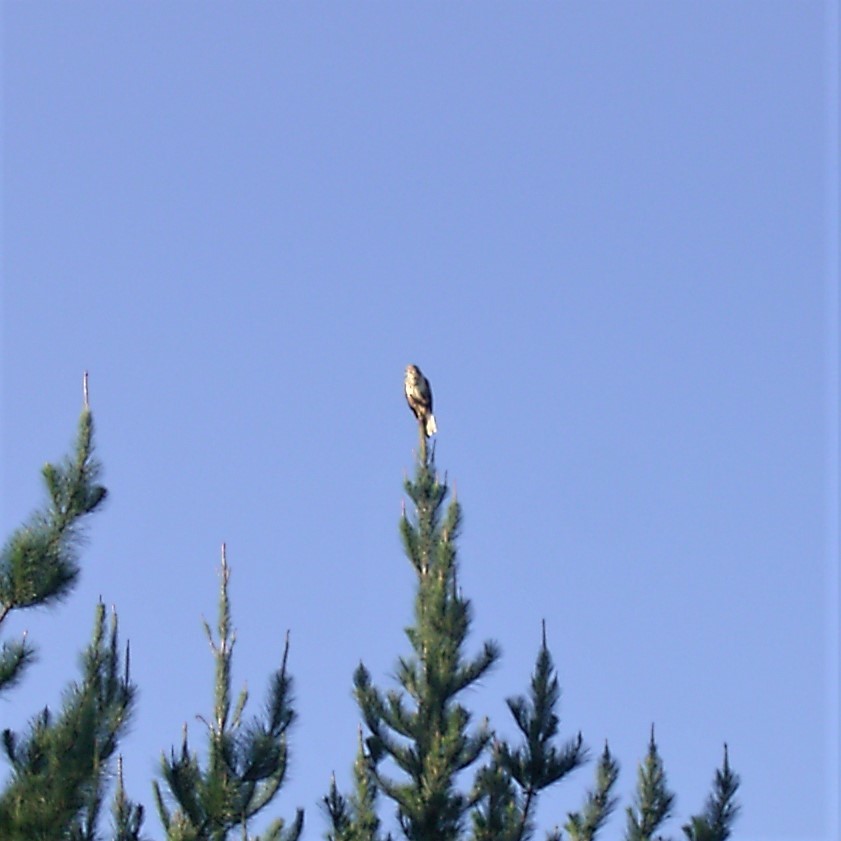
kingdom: Animalia
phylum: Chordata
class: Aves
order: Accipitriformes
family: Accipitridae
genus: Buteo
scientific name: Buteo trizonatus
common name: Forest buzzard
